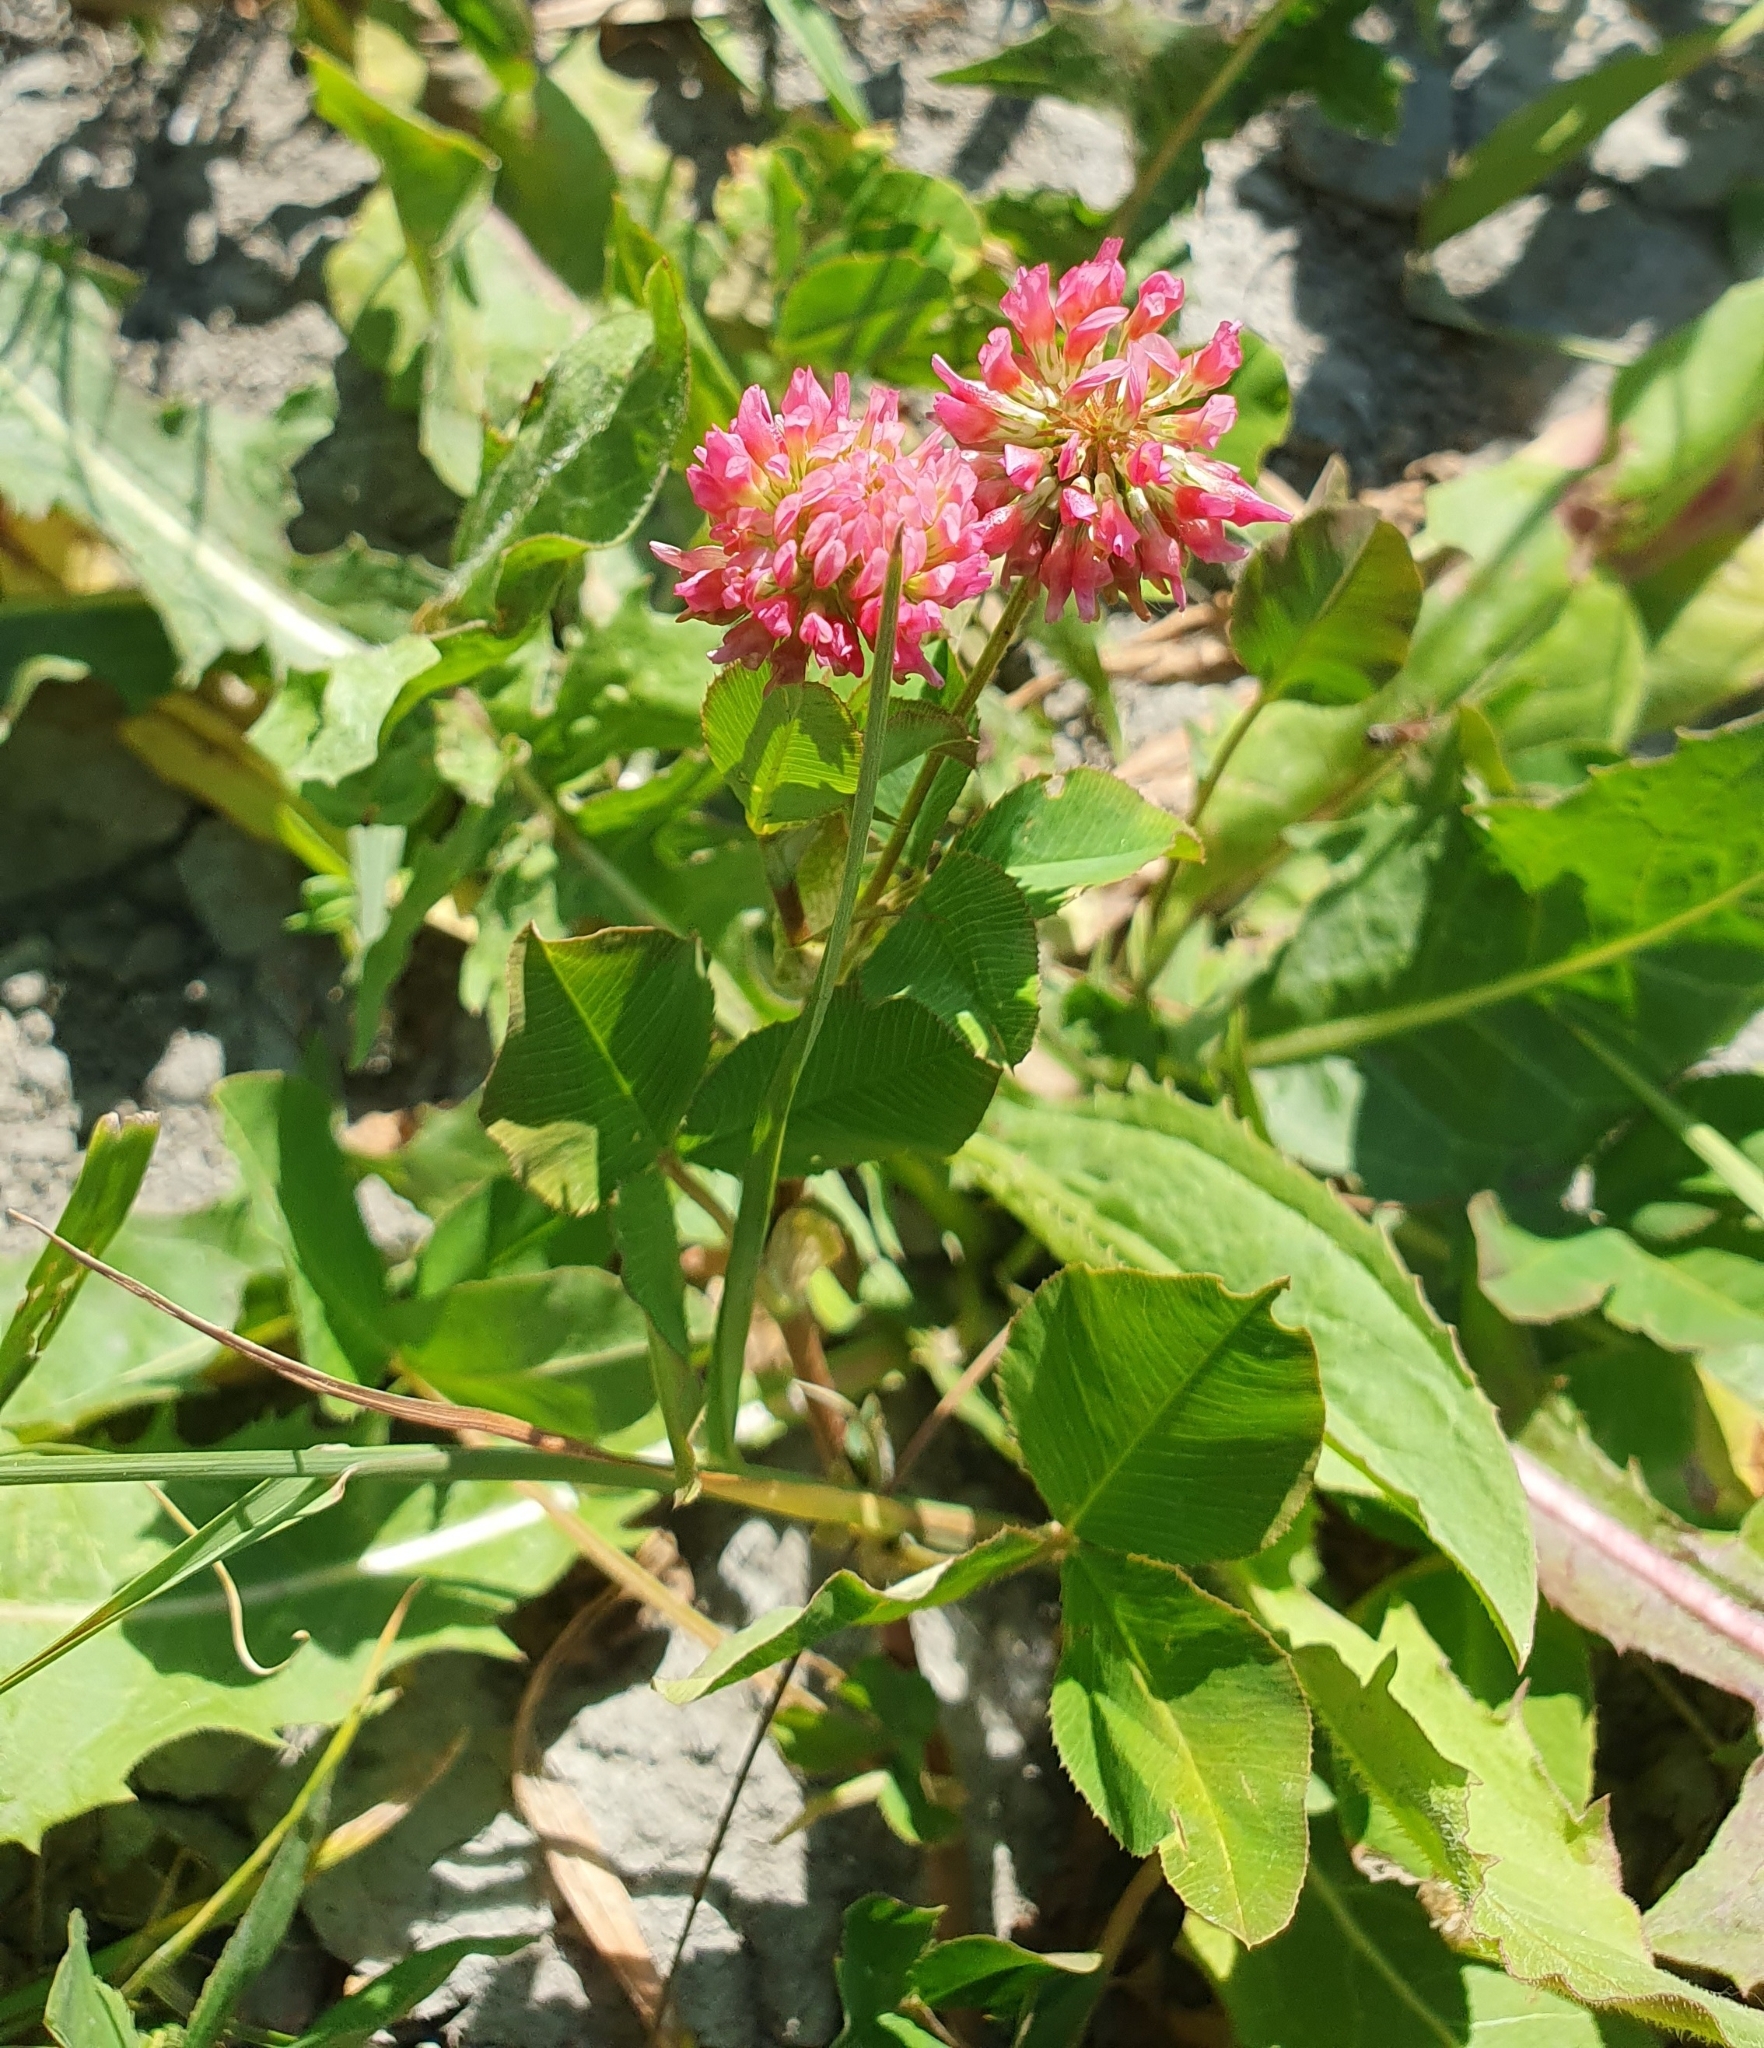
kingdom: Plantae
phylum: Tracheophyta
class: Magnoliopsida
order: Fabales
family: Fabaceae
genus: Trifolium
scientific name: Trifolium hybridum
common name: Alsike clover
